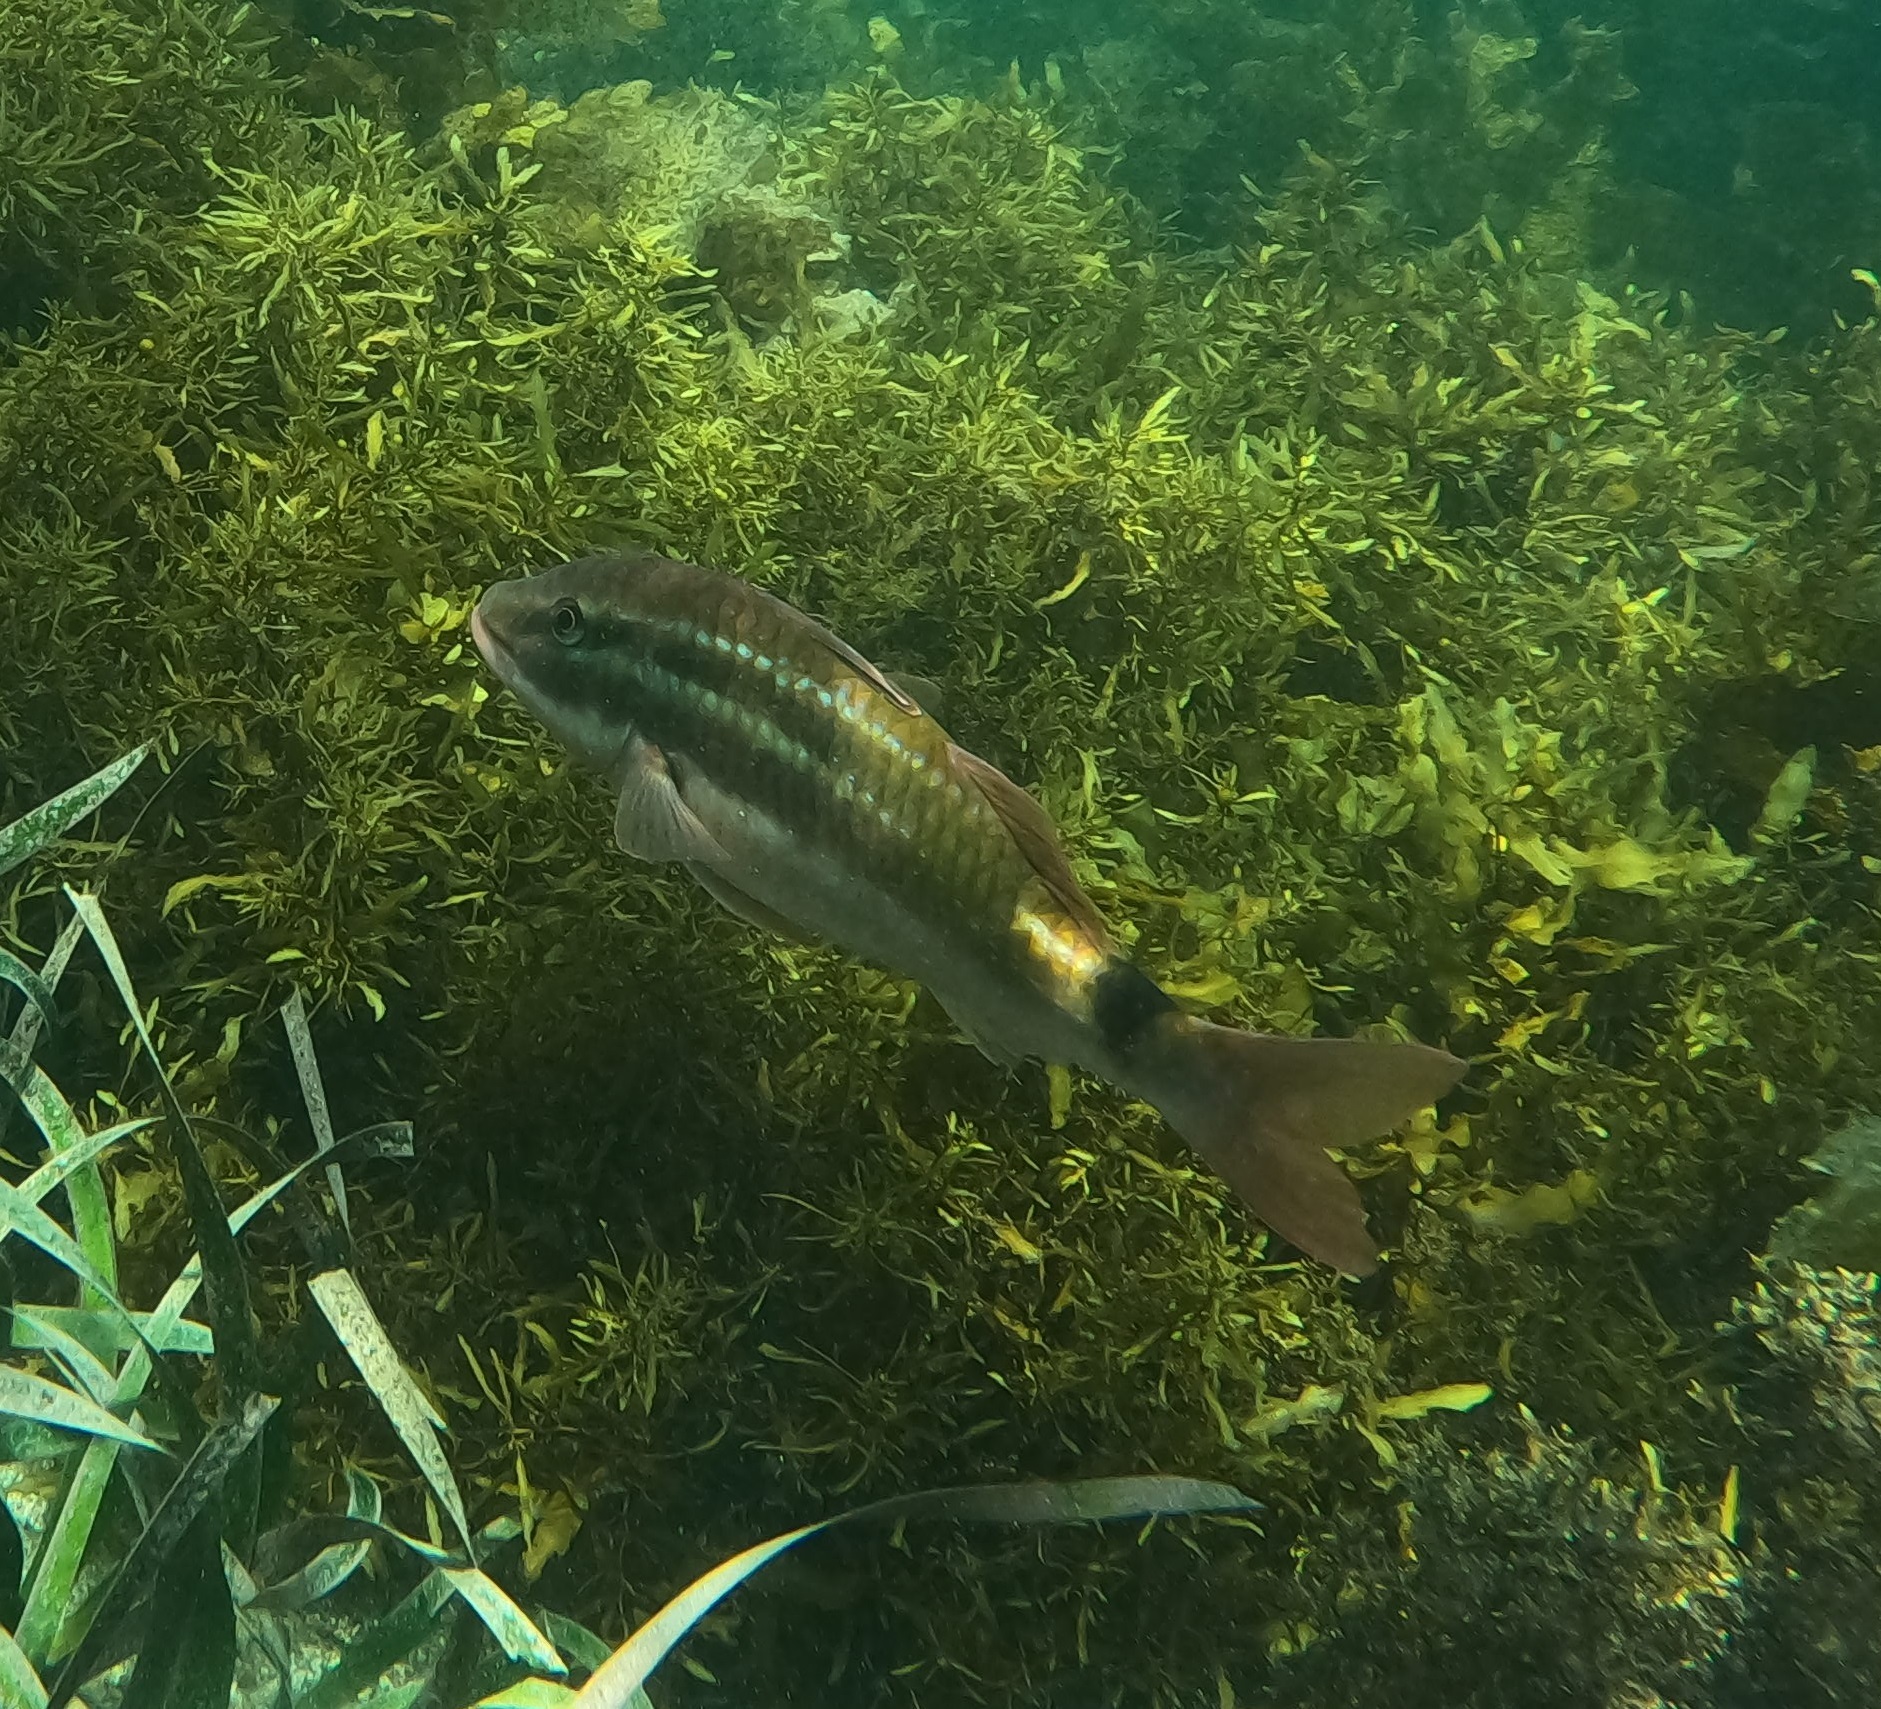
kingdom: Animalia
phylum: Chordata
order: Perciformes
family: Mullidae
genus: Parupeneus
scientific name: Parupeneus spilurus
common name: Blackspot goatfish
